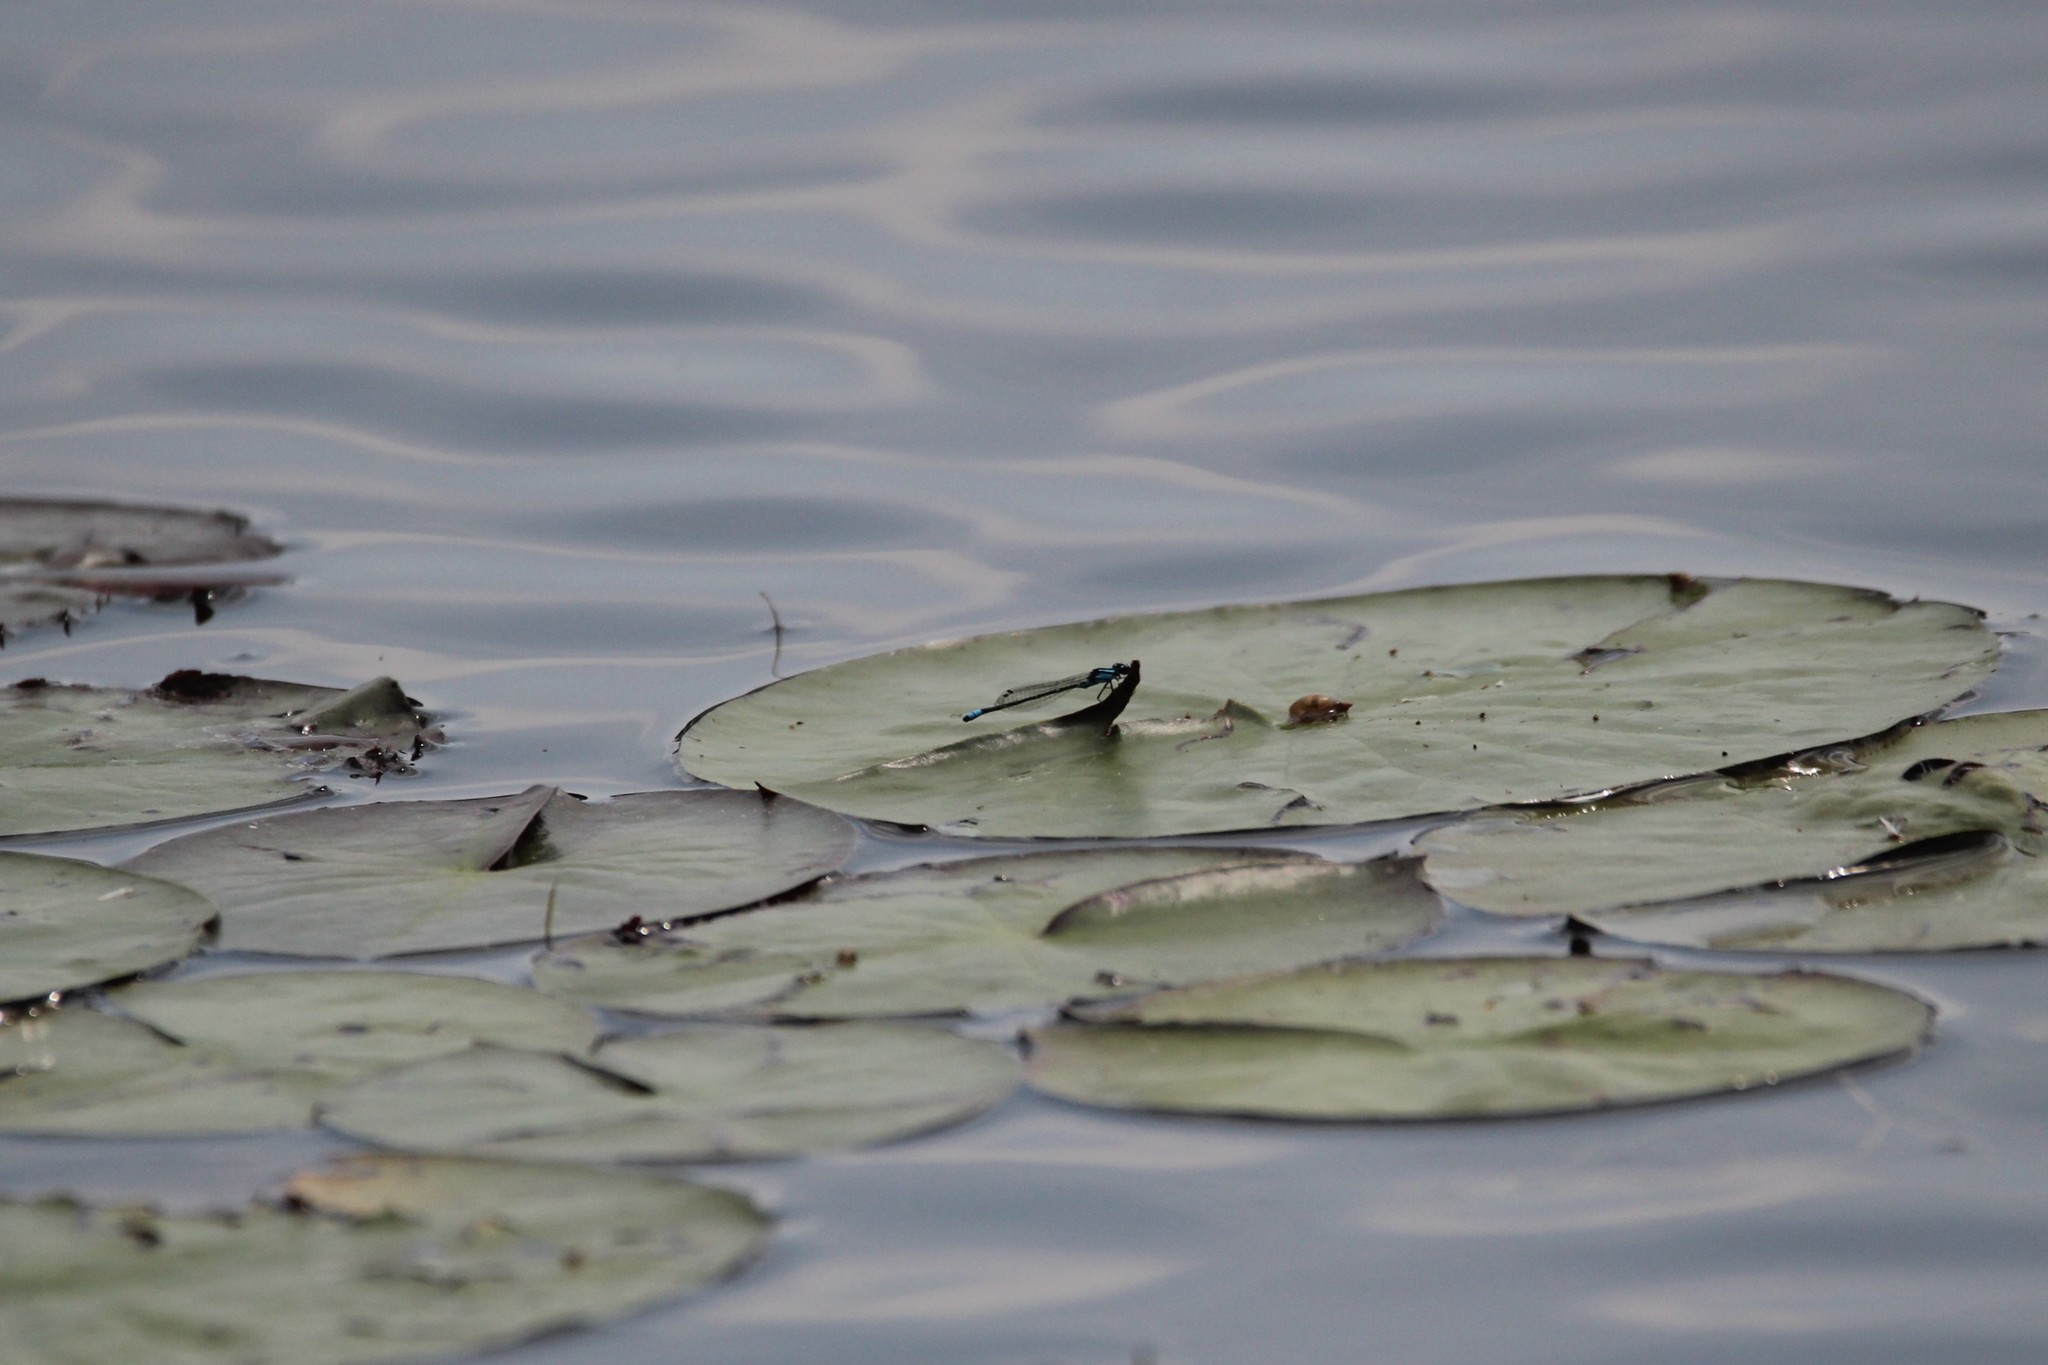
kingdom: Animalia
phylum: Arthropoda
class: Insecta
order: Odonata
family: Coenagrionidae
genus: Enallagma
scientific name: Enallagma geminatum
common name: Skimming bluet
